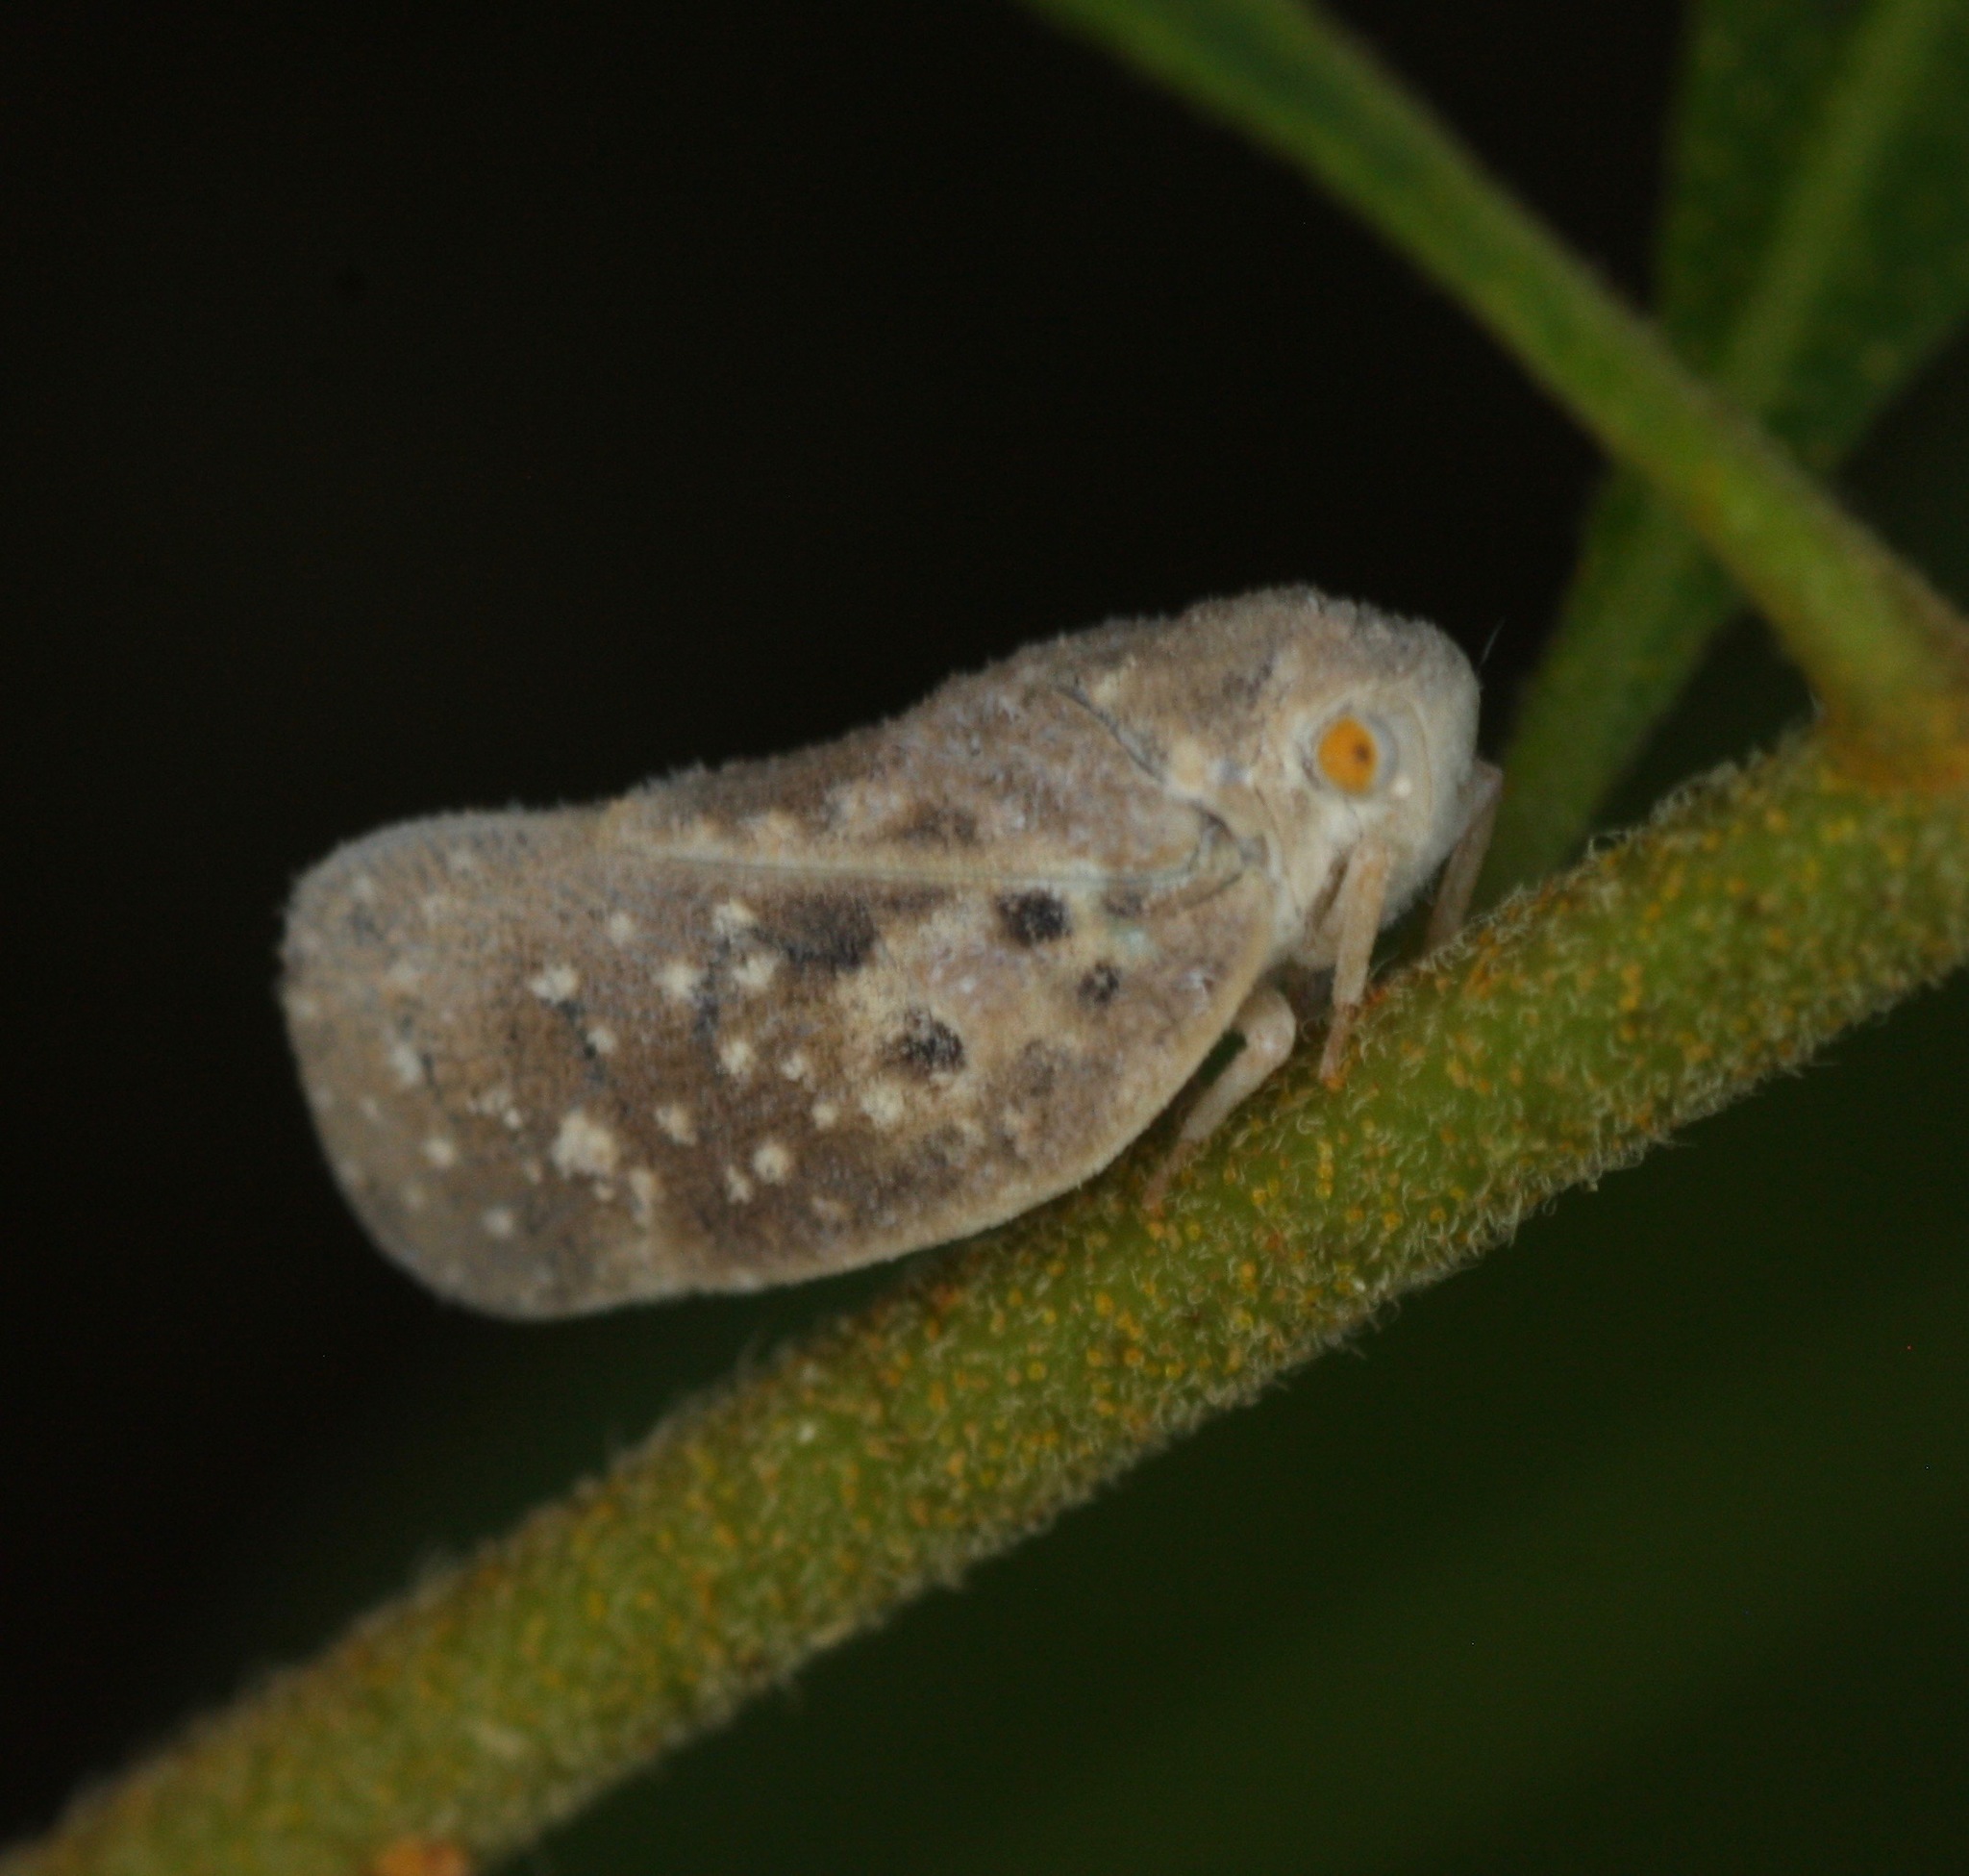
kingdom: Animalia
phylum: Arthropoda
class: Insecta
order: Hemiptera
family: Flatidae
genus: Metcalfa
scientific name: Metcalfa pruinosa
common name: Citrus flatid planthopper
